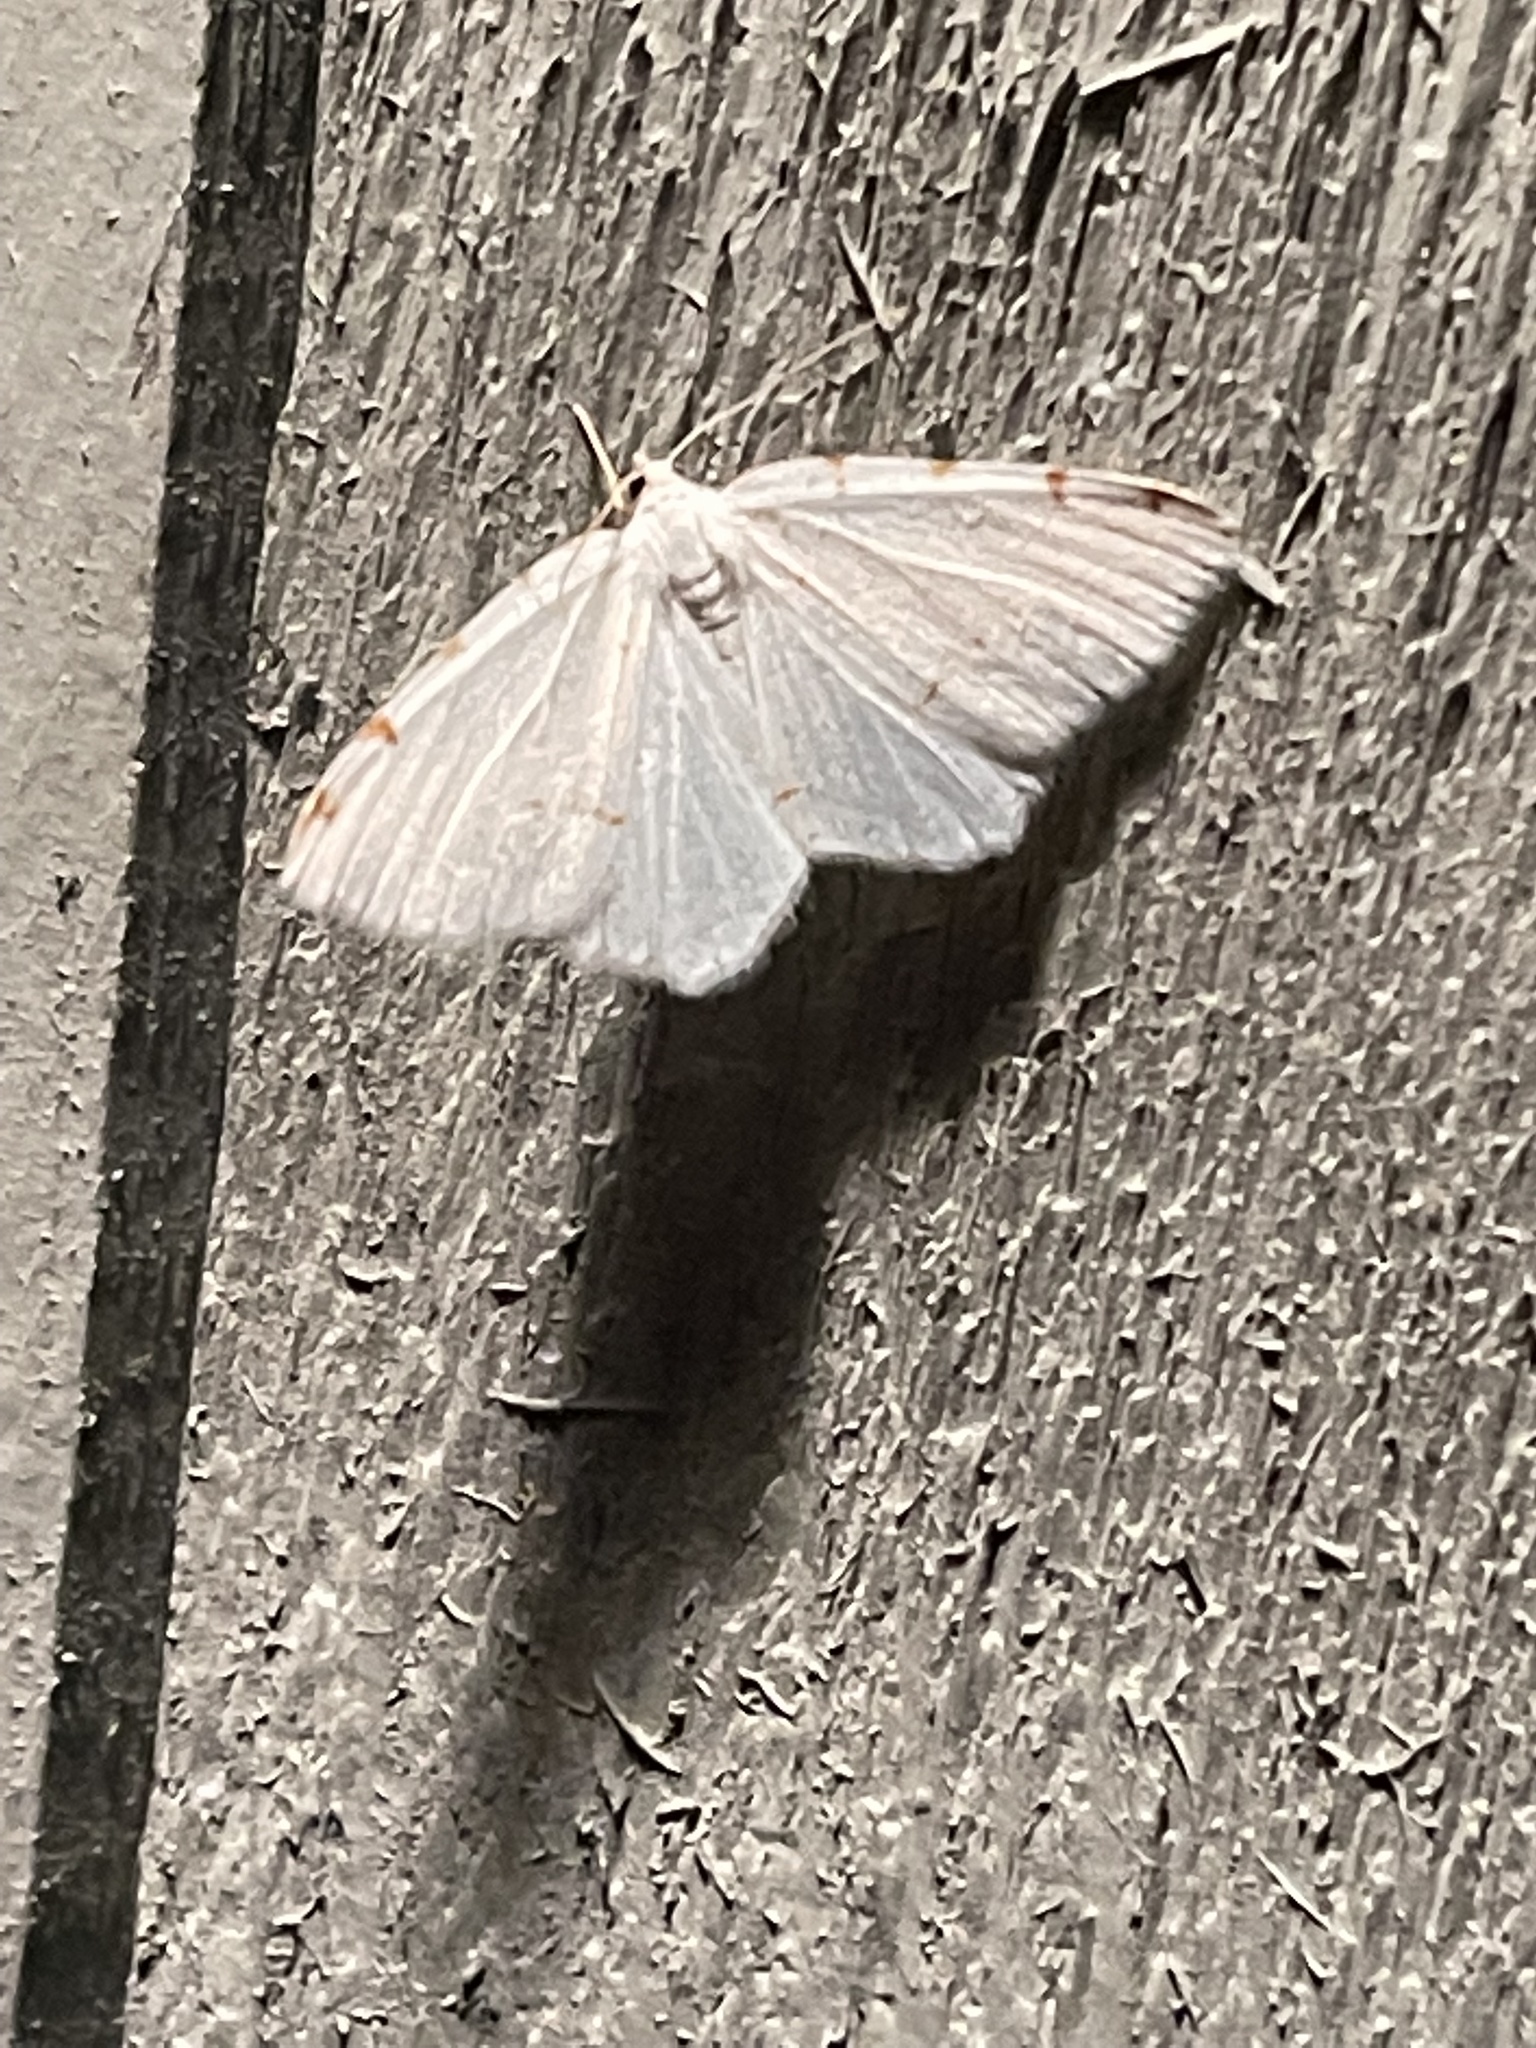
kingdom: Animalia
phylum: Arthropoda
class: Insecta
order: Lepidoptera
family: Geometridae
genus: Macaria
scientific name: Macaria pustularia
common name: Lesser maple spanworm moth
